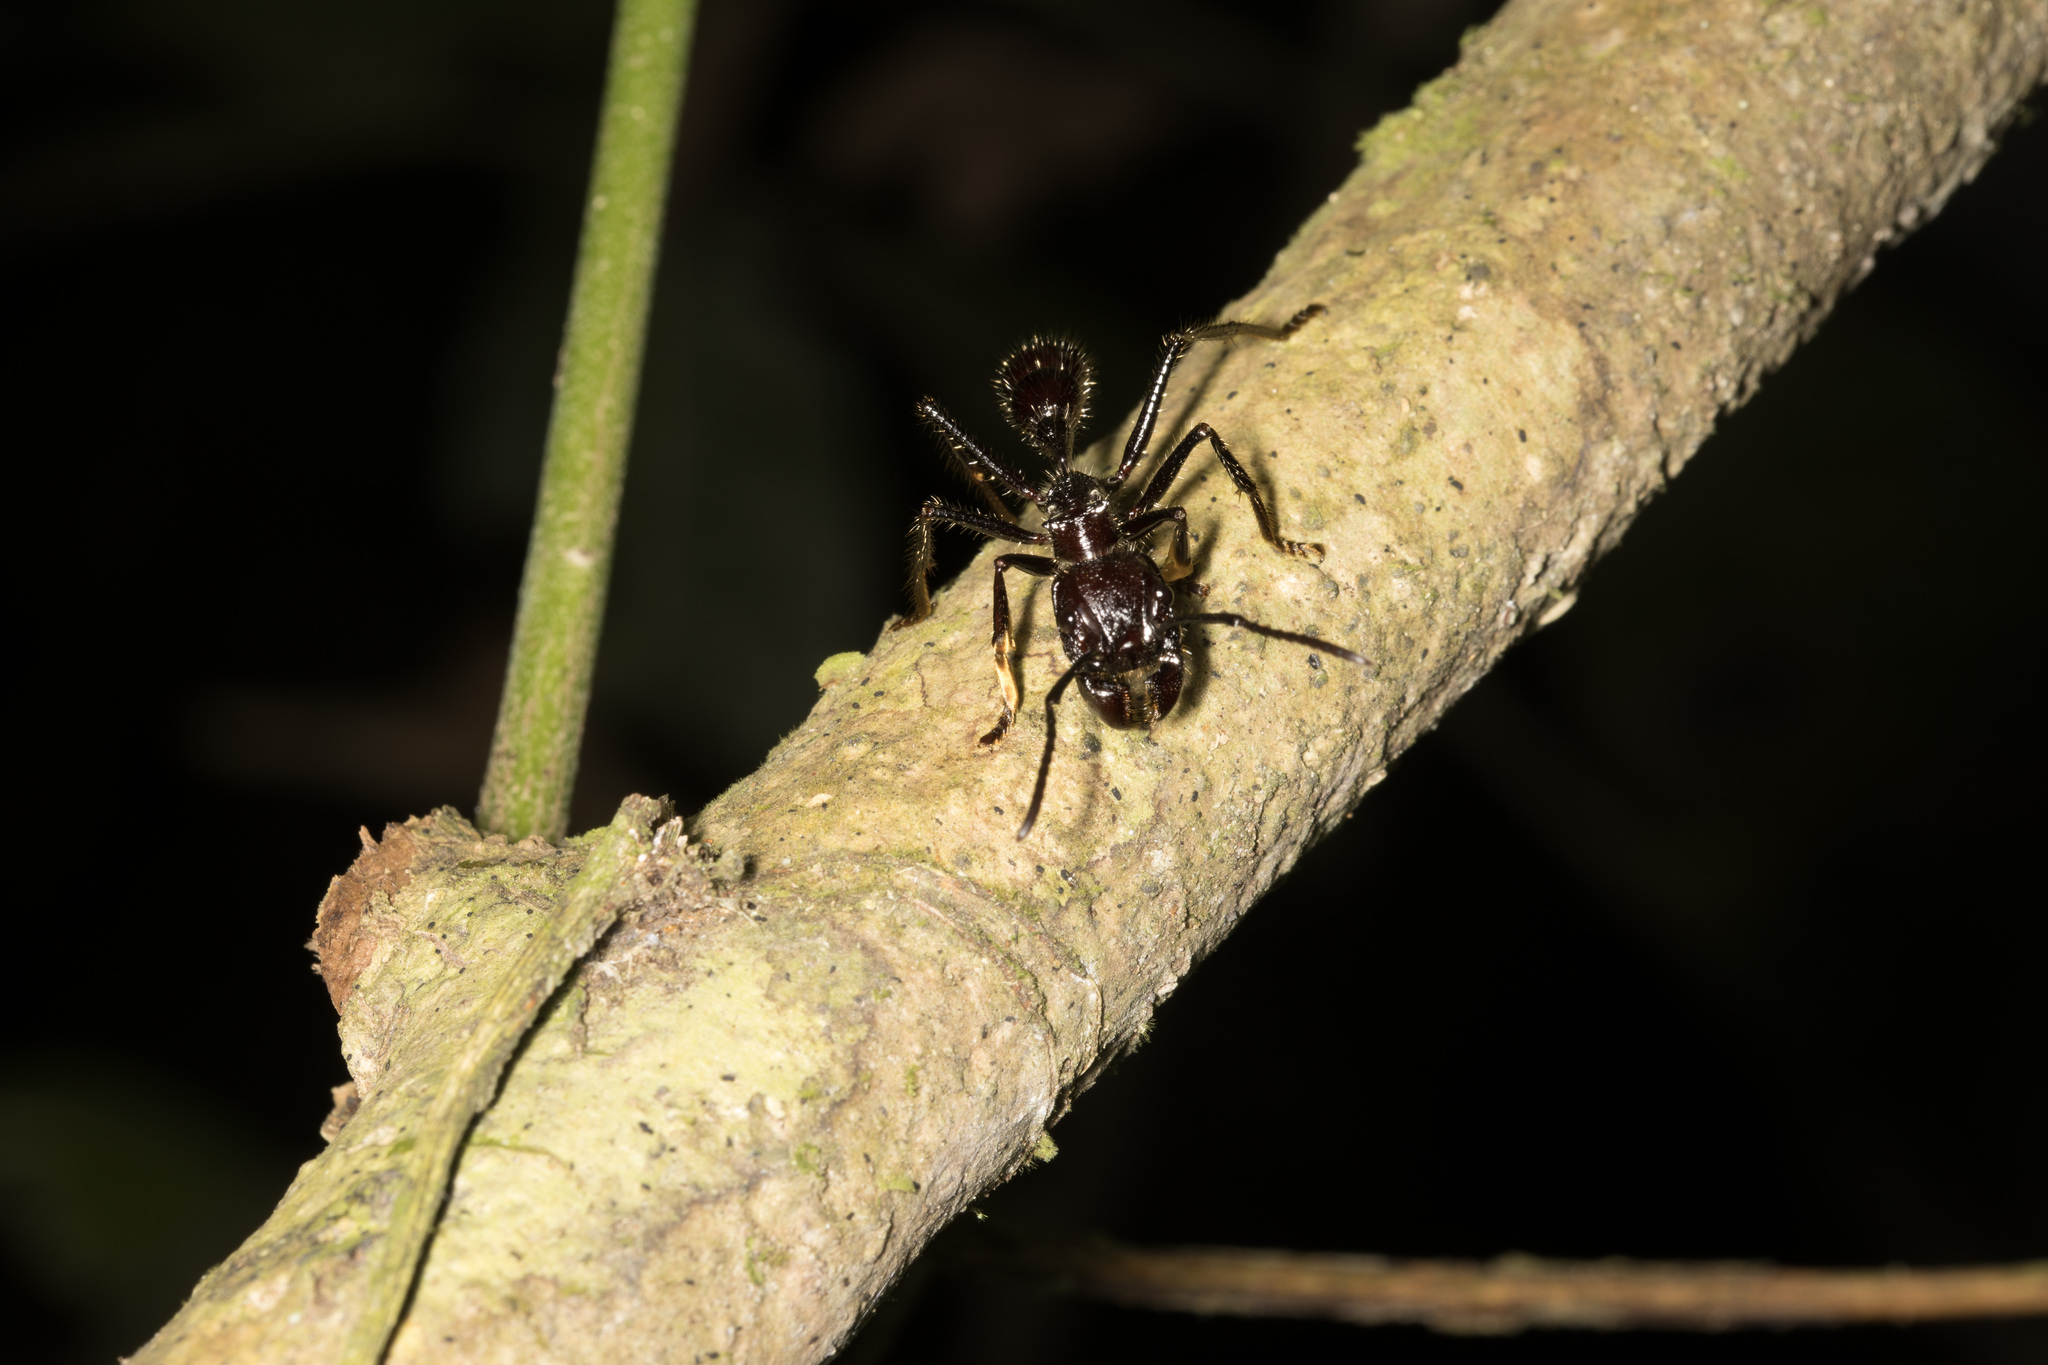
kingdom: Animalia
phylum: Arthropoda
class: Insecta
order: Hymenoptera
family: Formicidae
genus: Paraponera
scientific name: Paraponera clavata
